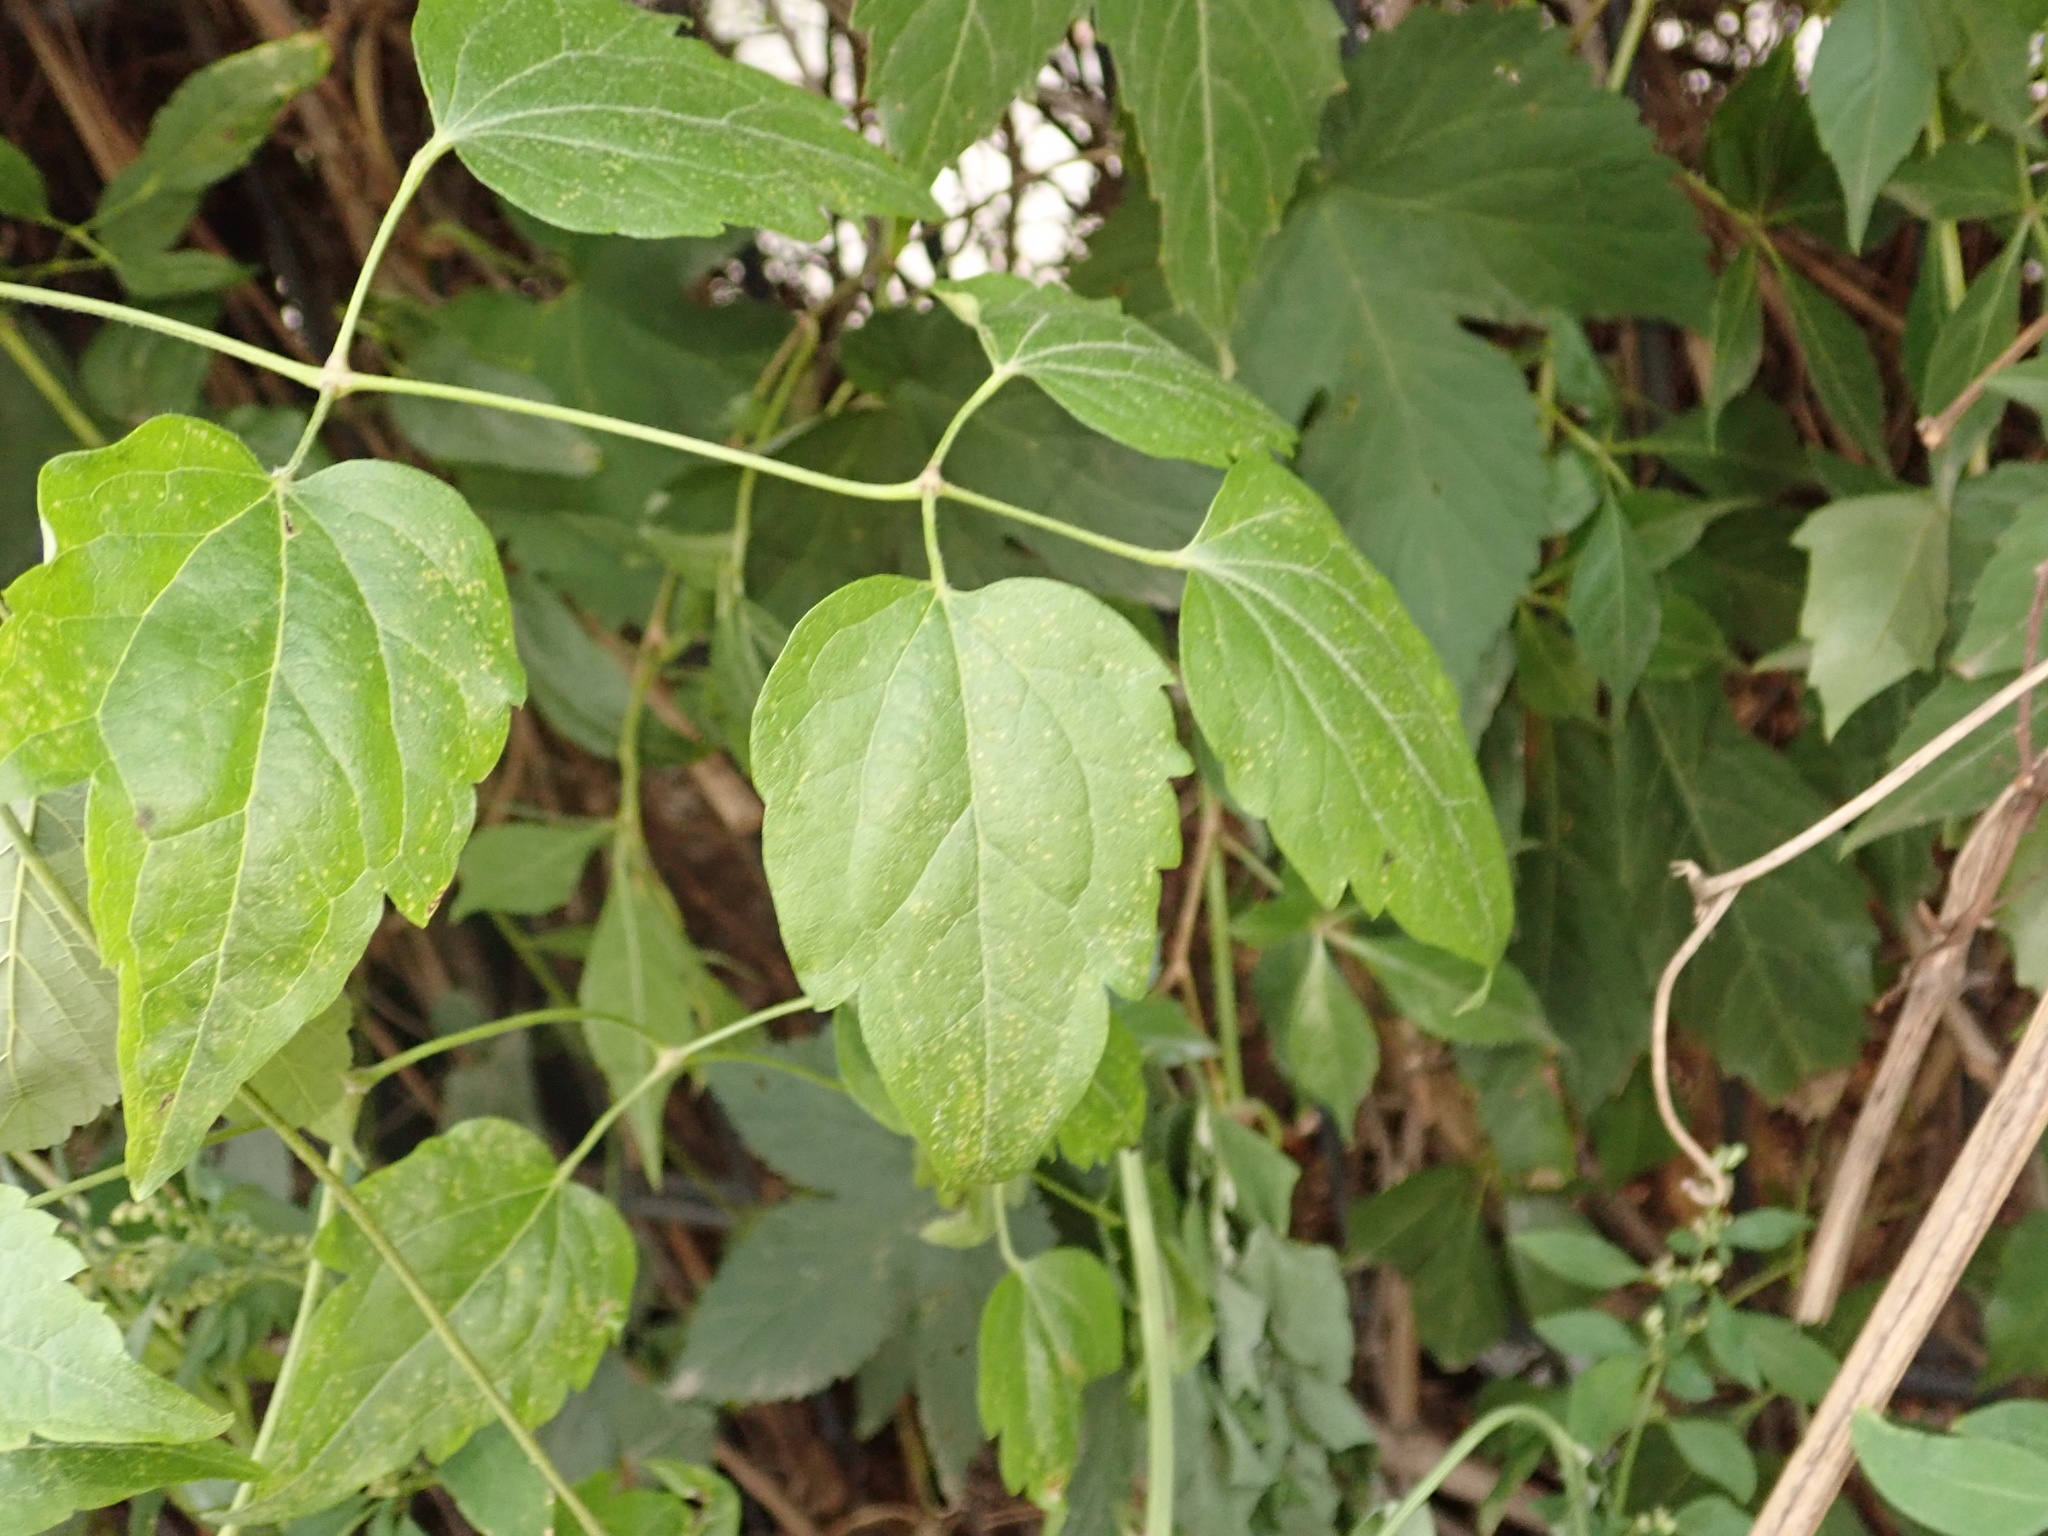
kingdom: Plantae
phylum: Tracheophyta
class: Magnoliopsida
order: Ranunculales
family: Ranunculaceae
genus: Clematis
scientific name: Clematis vitalba
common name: Evergreen clematis
